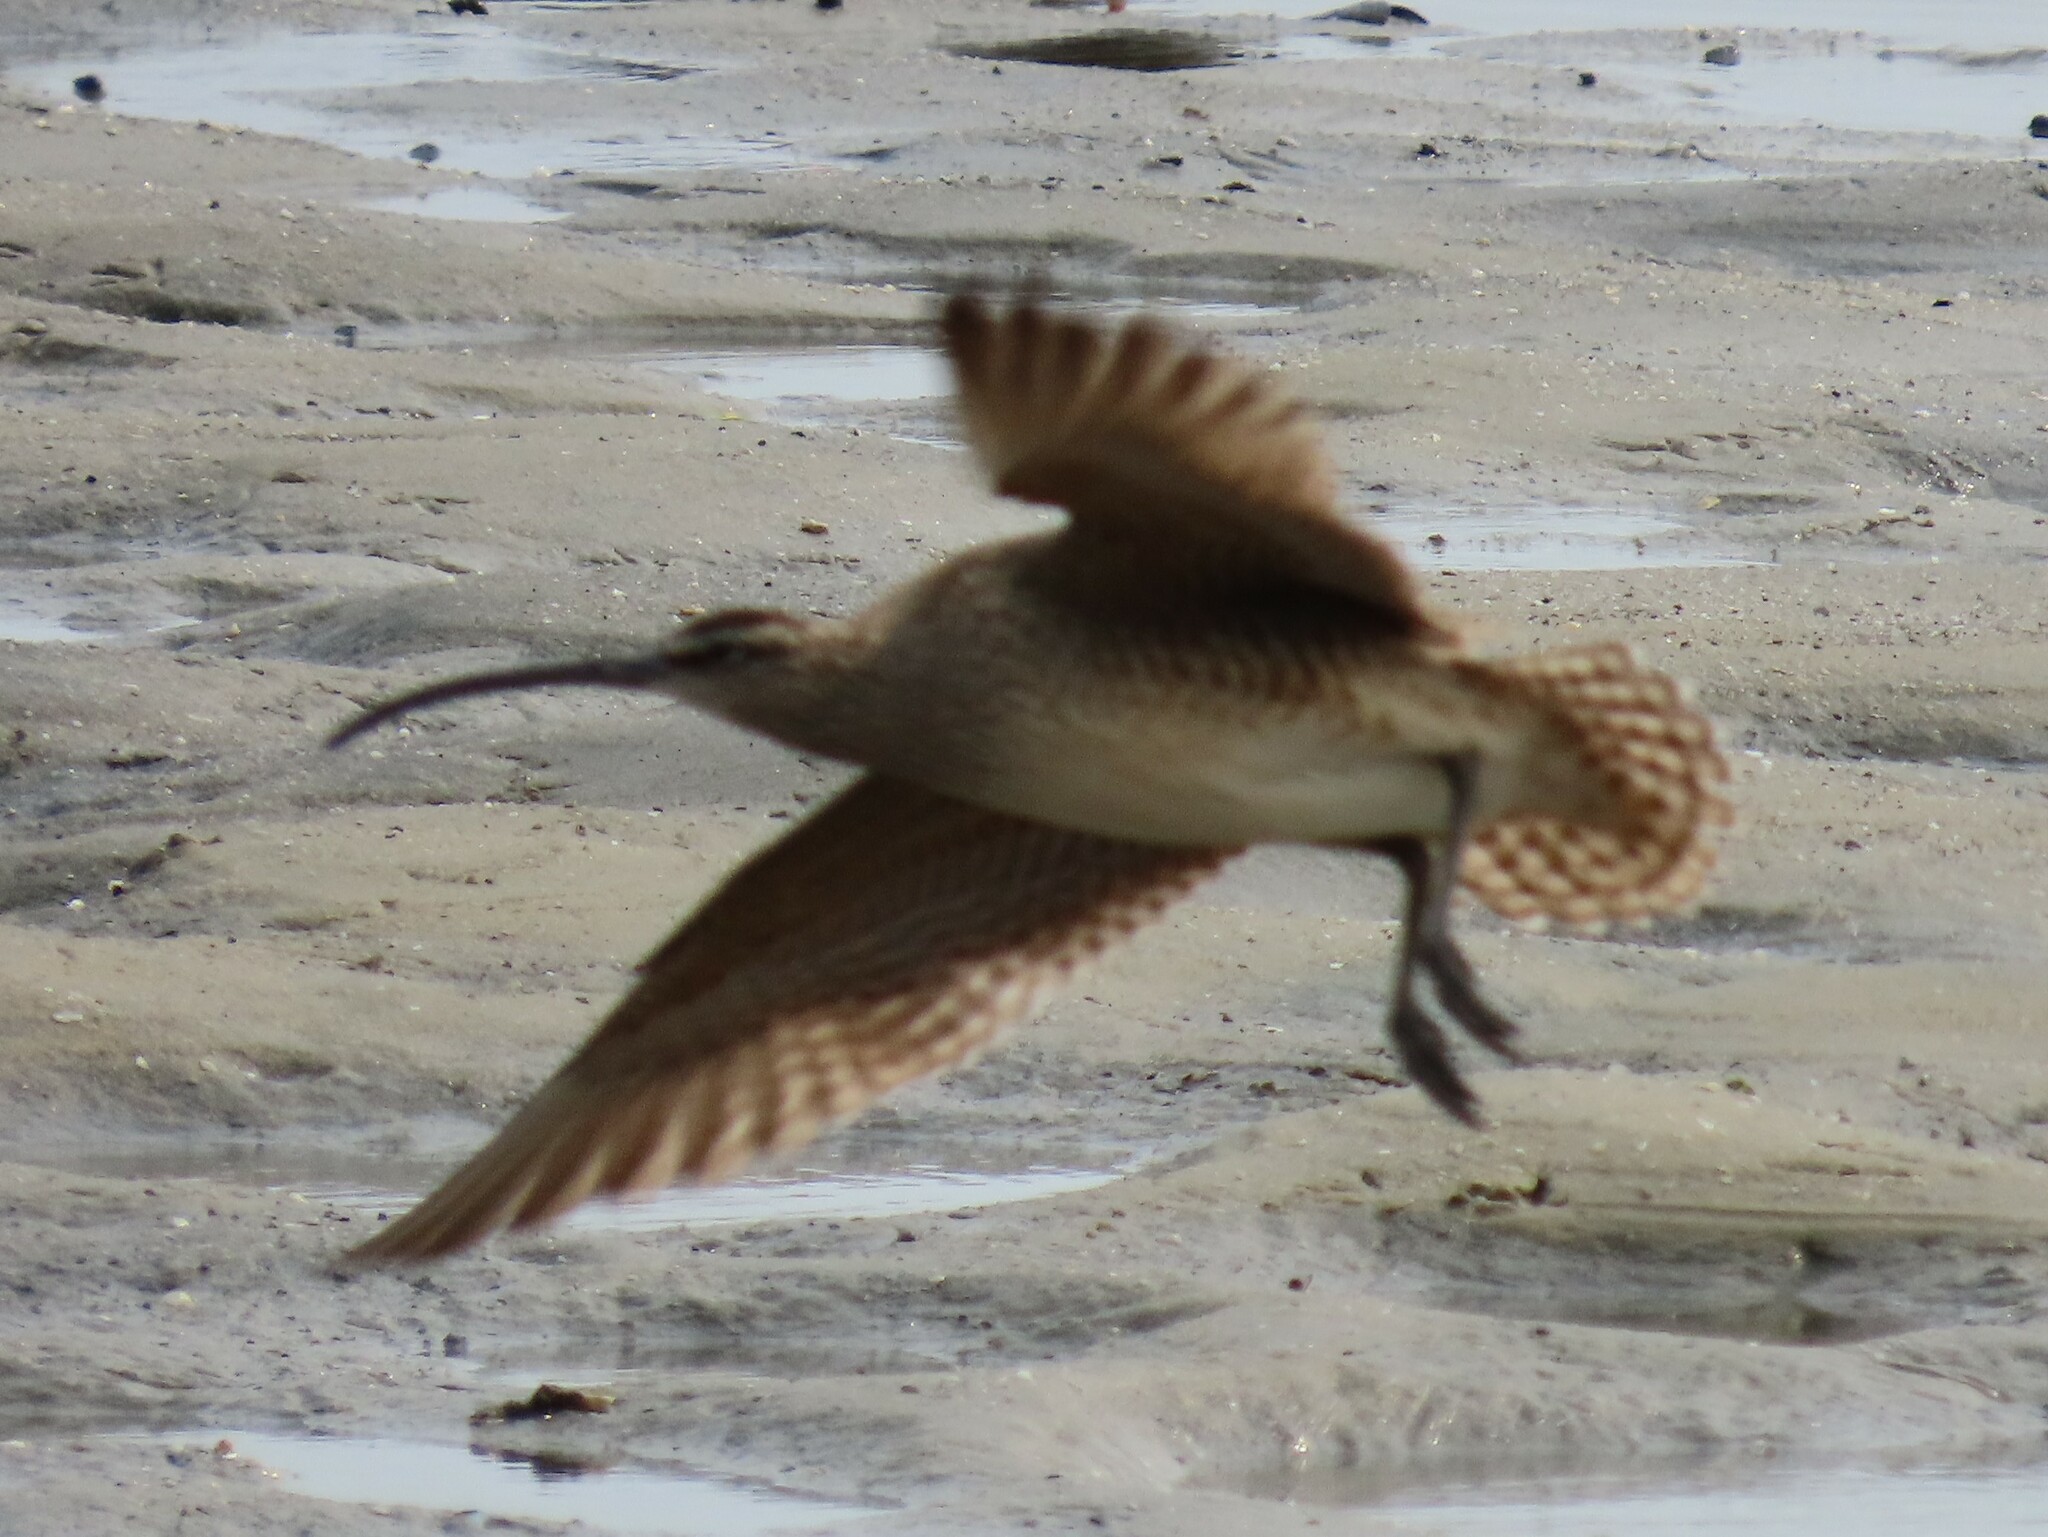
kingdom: Animalia
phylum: Chordata
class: Aves
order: Charadriiformes
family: Scolopacidae
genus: Numenius
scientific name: Numenius phaeopus
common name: Whimbrel
